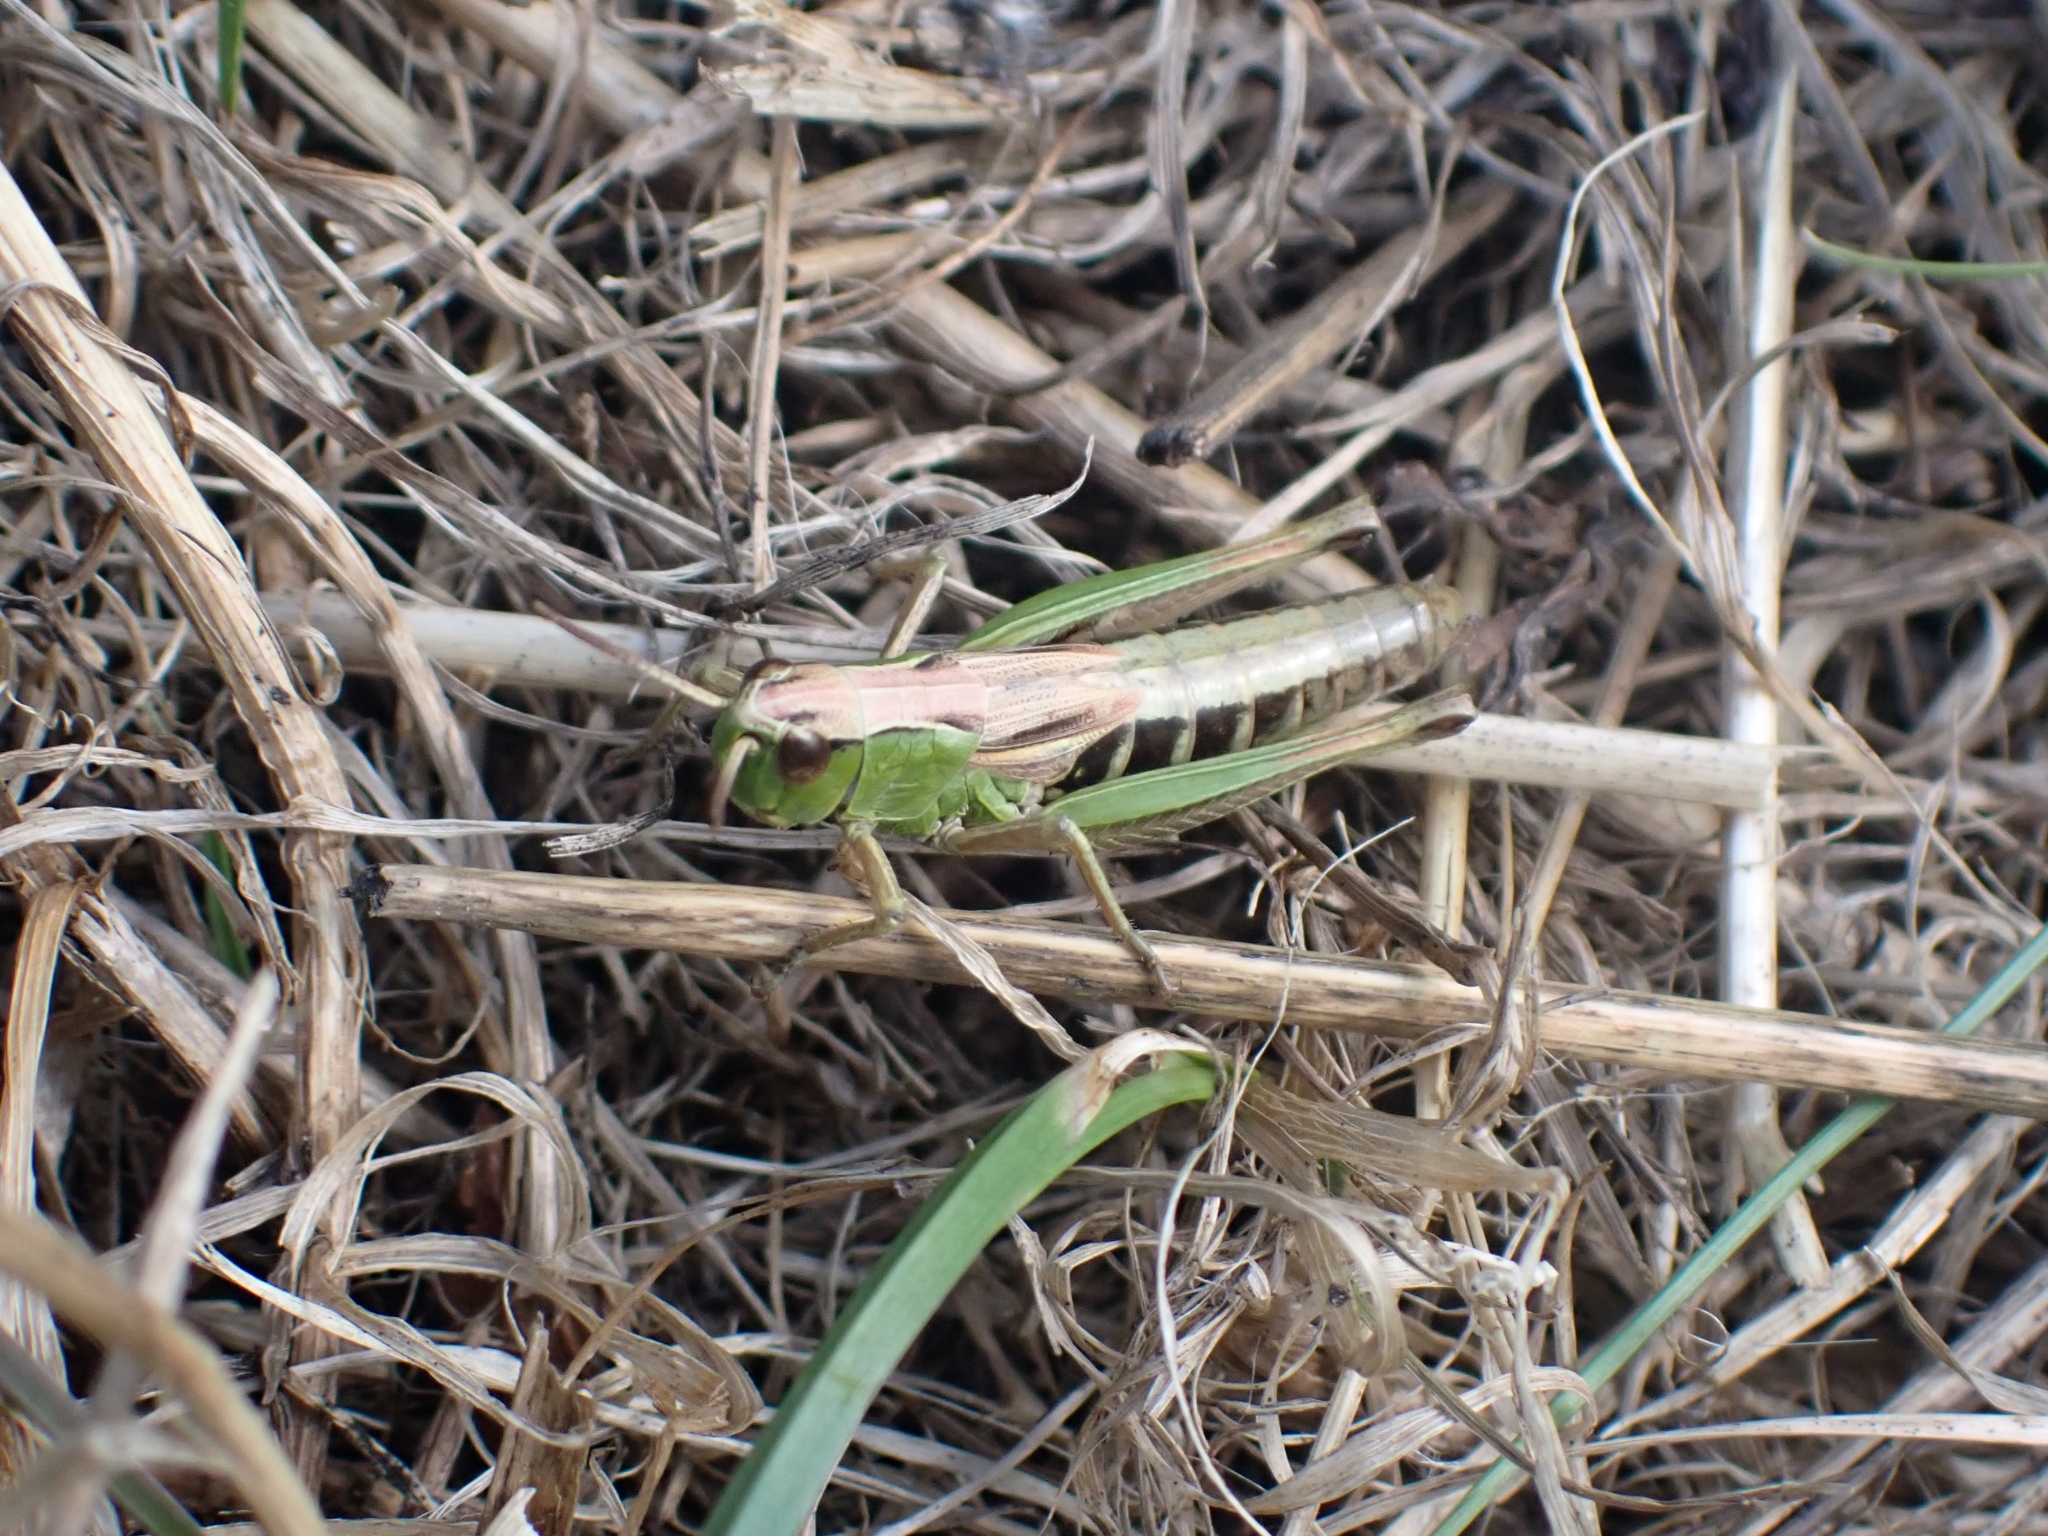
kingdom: Animalia
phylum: Arthropoda
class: Insecta
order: Orthoptera
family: Acrididae
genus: Pseudochorthippus
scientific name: Pseudochorthippus parallelus
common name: Meadow grasshopper
